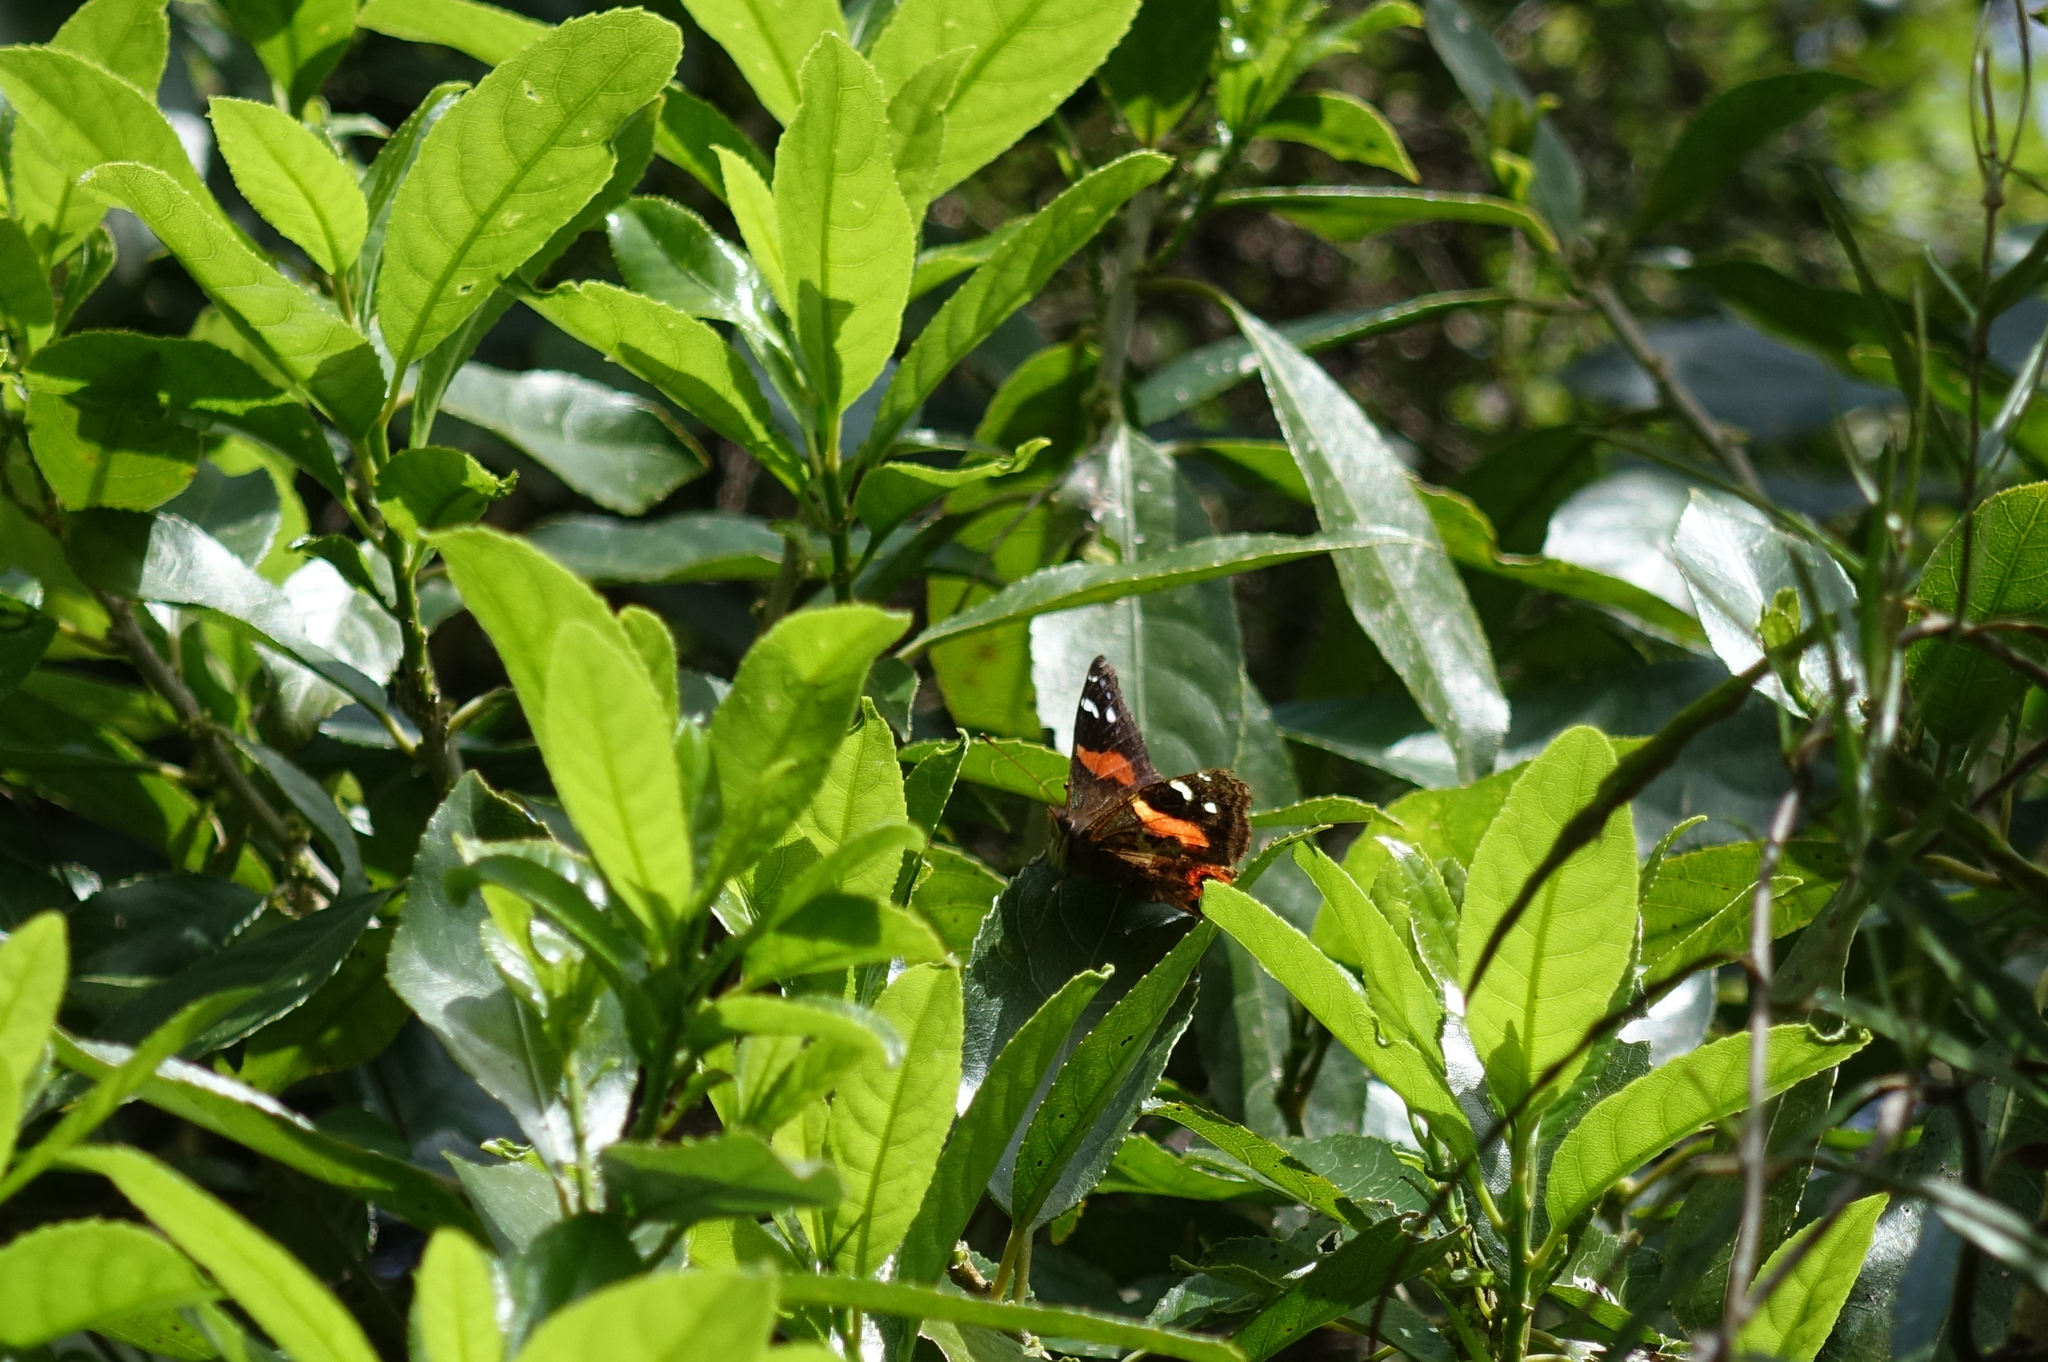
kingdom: Animalia
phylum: Arthropoda
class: Insecta
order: Lepidoptera
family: Nymphalidae
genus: Vanessa
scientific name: Vanessa gonerilla
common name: New zealand red admiral
